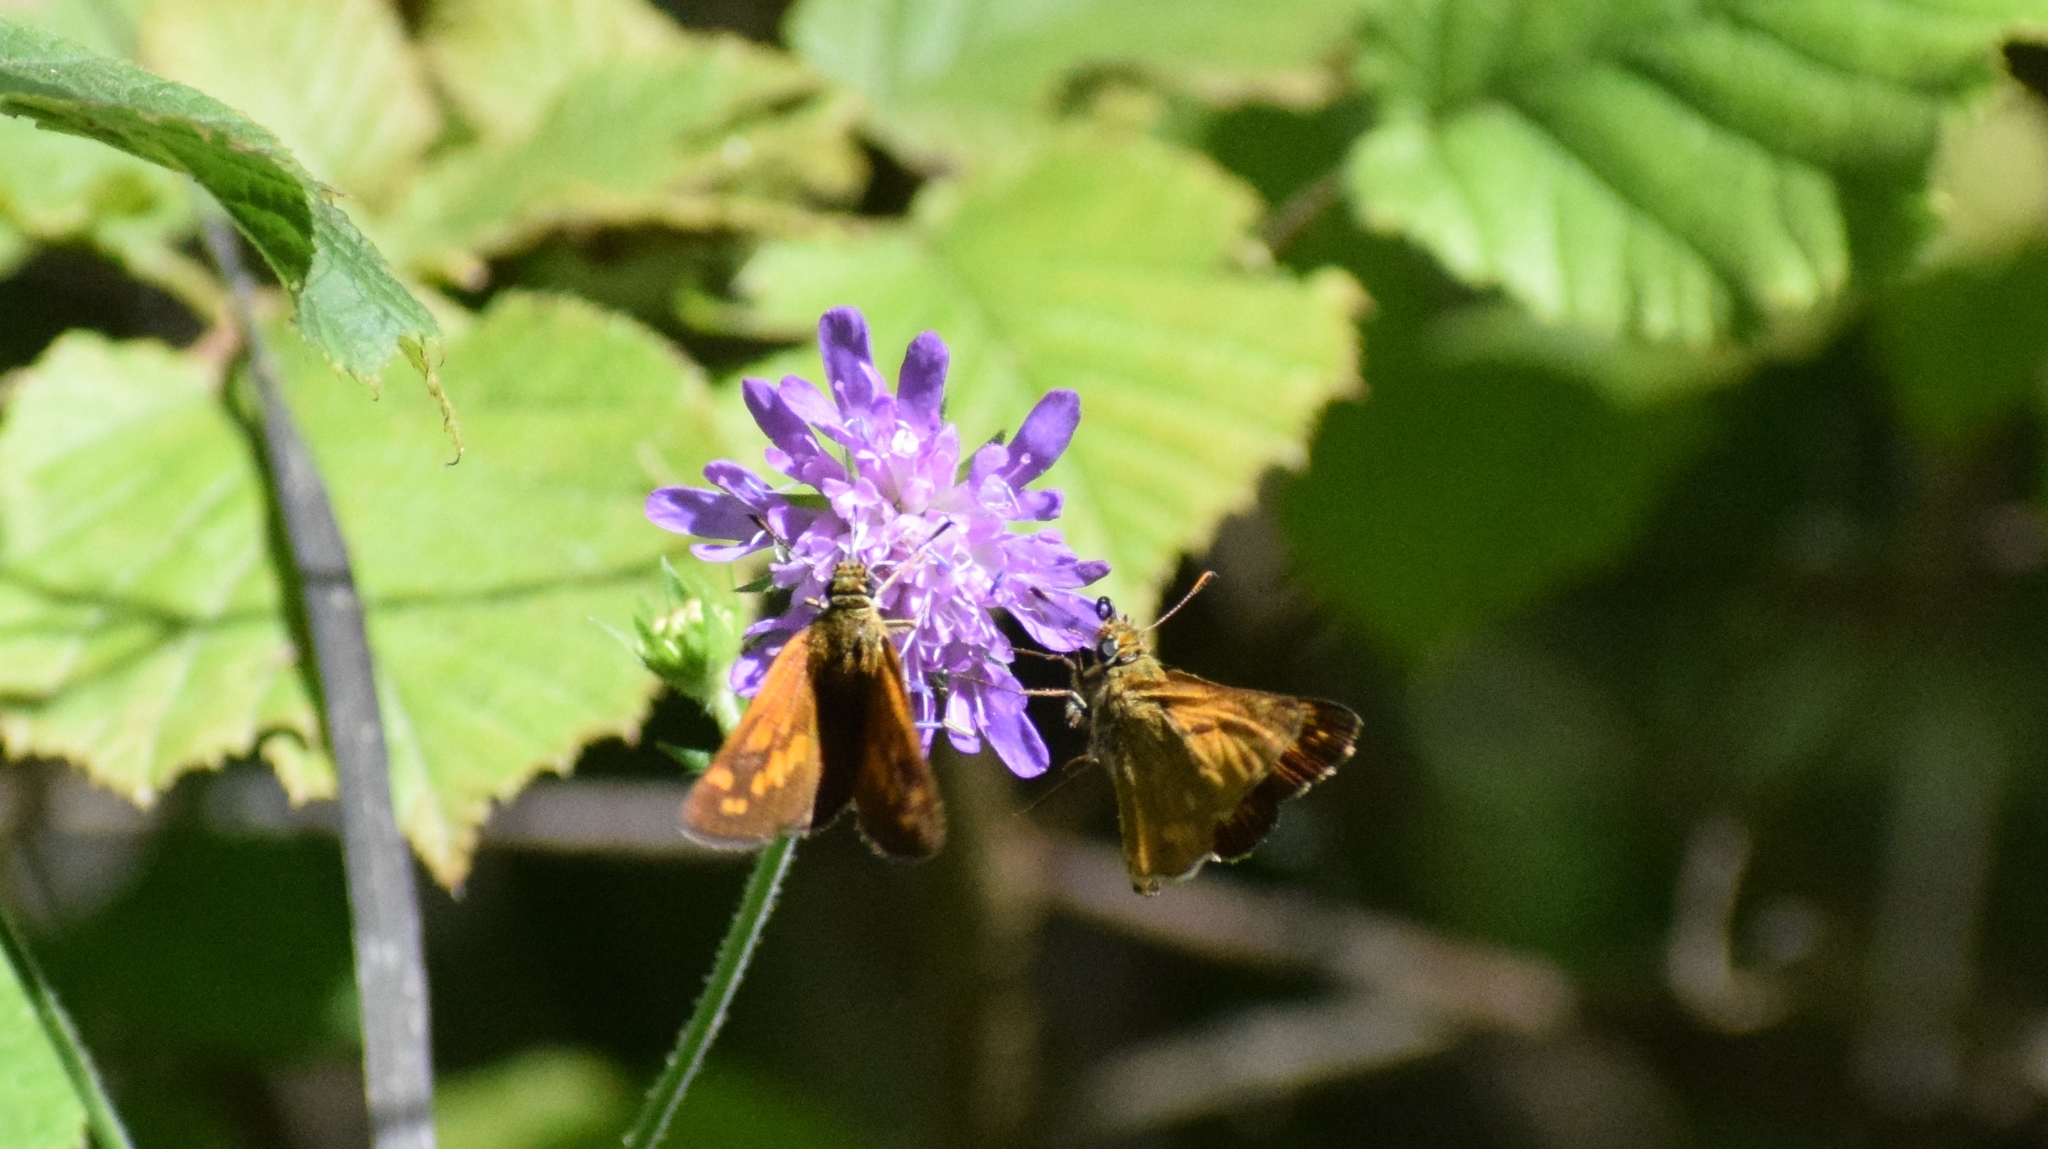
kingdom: Animalia
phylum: Arthropoda
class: Insecta
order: Lepidoptera
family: Hesperiidae
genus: Ochlodes
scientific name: Ochlodes venata
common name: Large skipper
